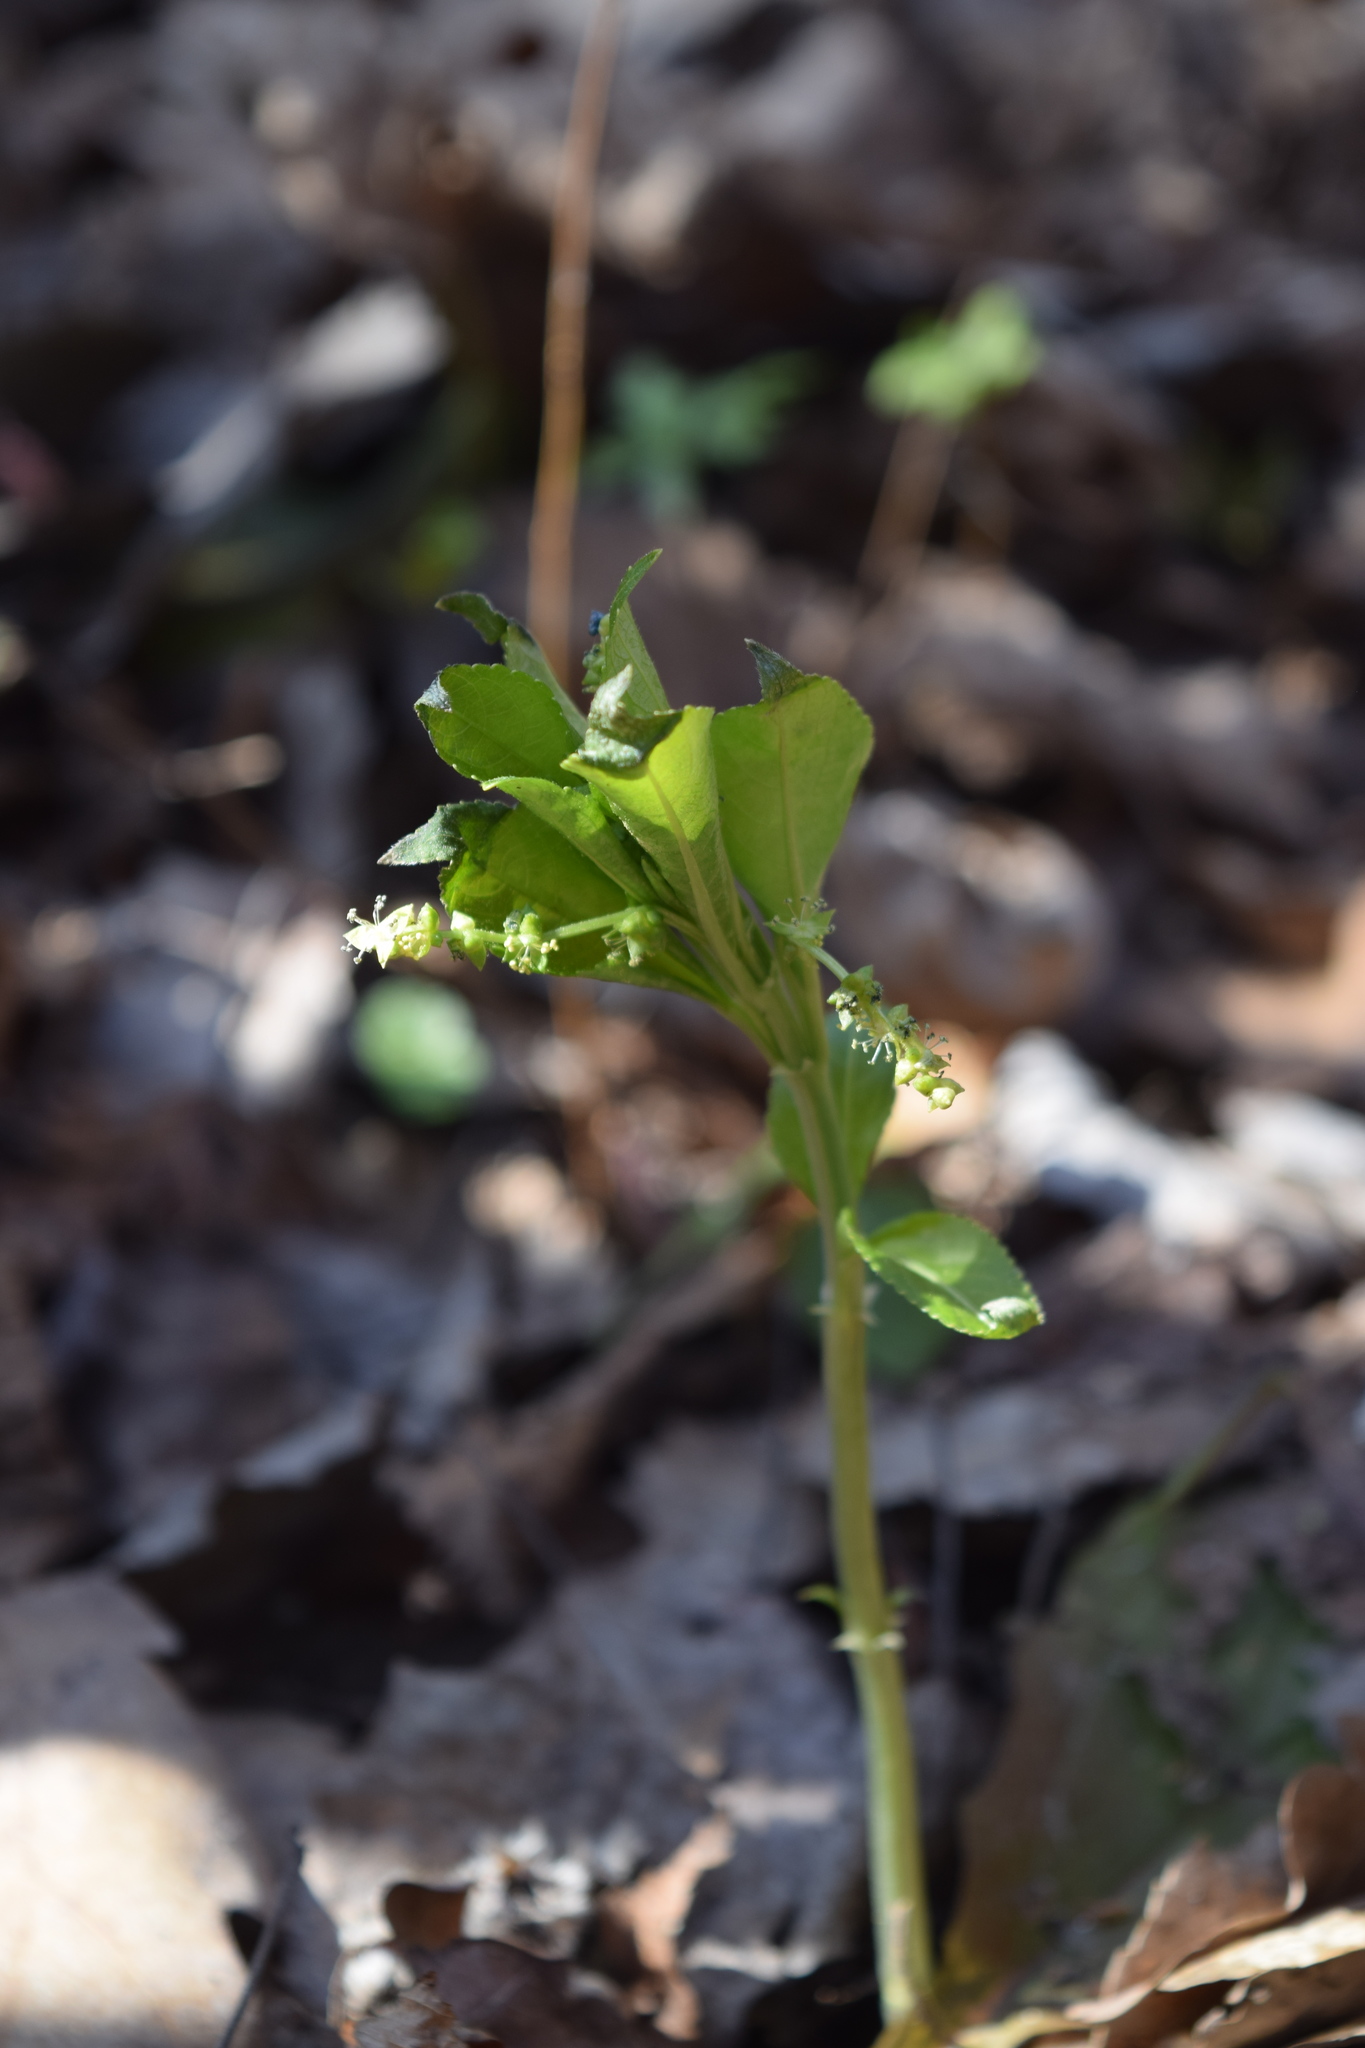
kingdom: Plantae
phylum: Tracheophyta
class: Magnoliopsida
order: Malpighiales
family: Euphorbiaceae
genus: Mercurialis
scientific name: Mercurialis perennis
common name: Dog mercury
